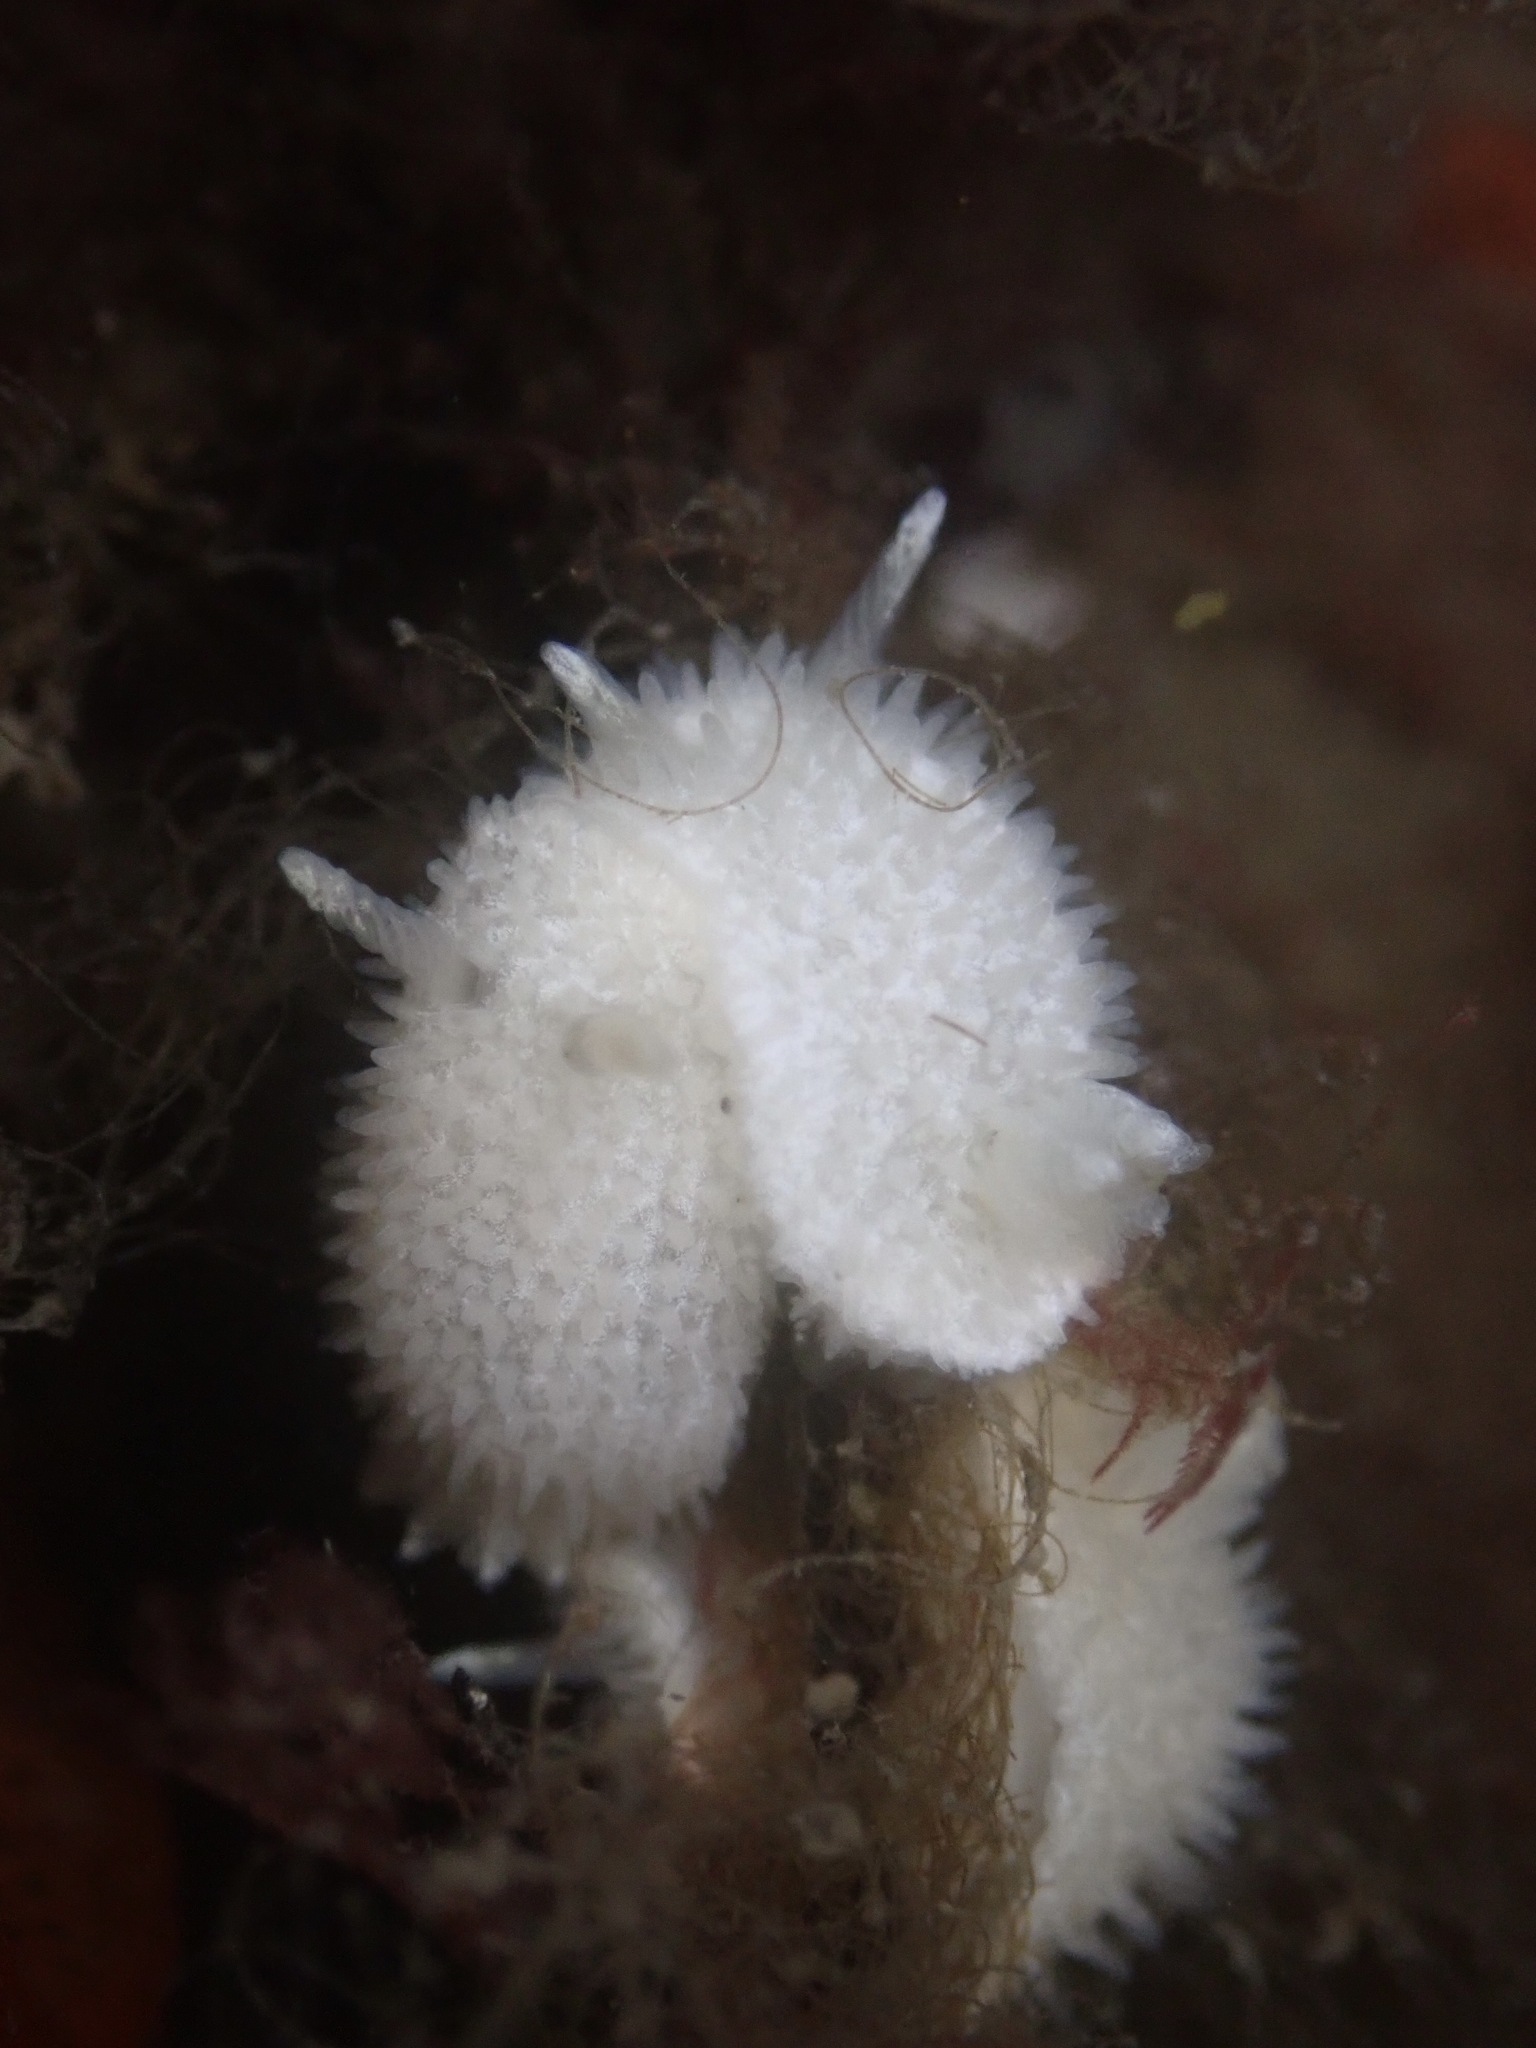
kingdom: Animalia
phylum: Mollusca
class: Gastropoda
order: Nudibranchia
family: Calycidorididae
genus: Diaphorodoris
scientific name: Diaphorodoris lirulatocauda
